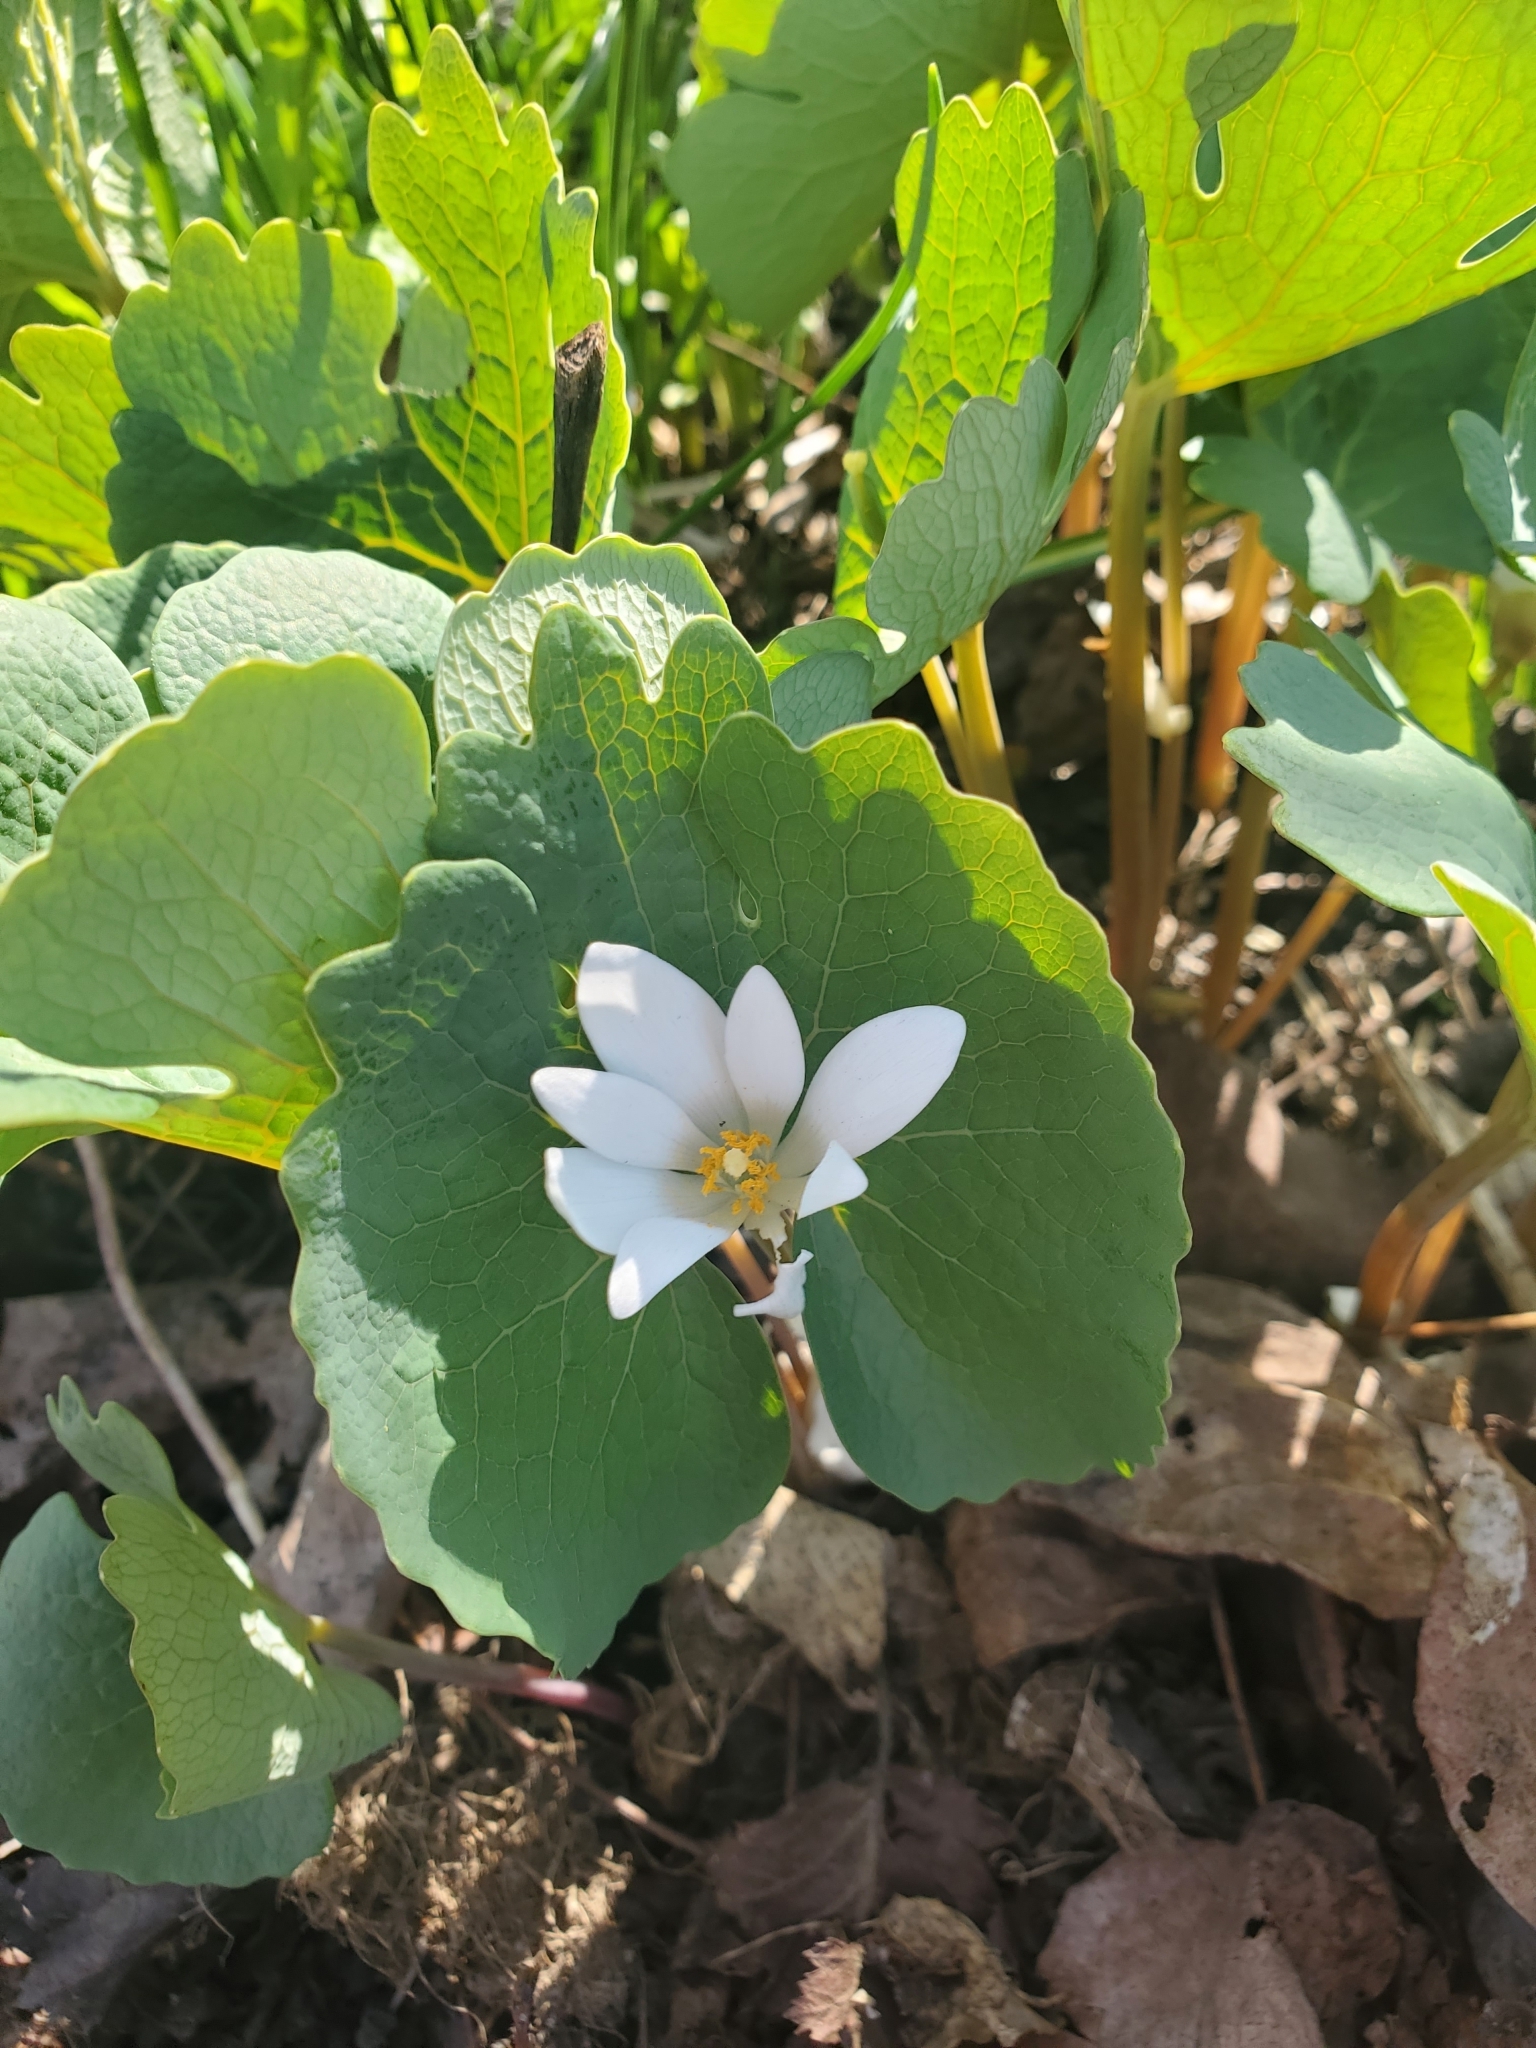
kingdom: Plantae
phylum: Tracheophyta
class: Magnoliopsida
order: Ranunculales
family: Papaveraceae
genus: Sanguinaria
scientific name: Sanguinaria canadensis
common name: Bloodroot
